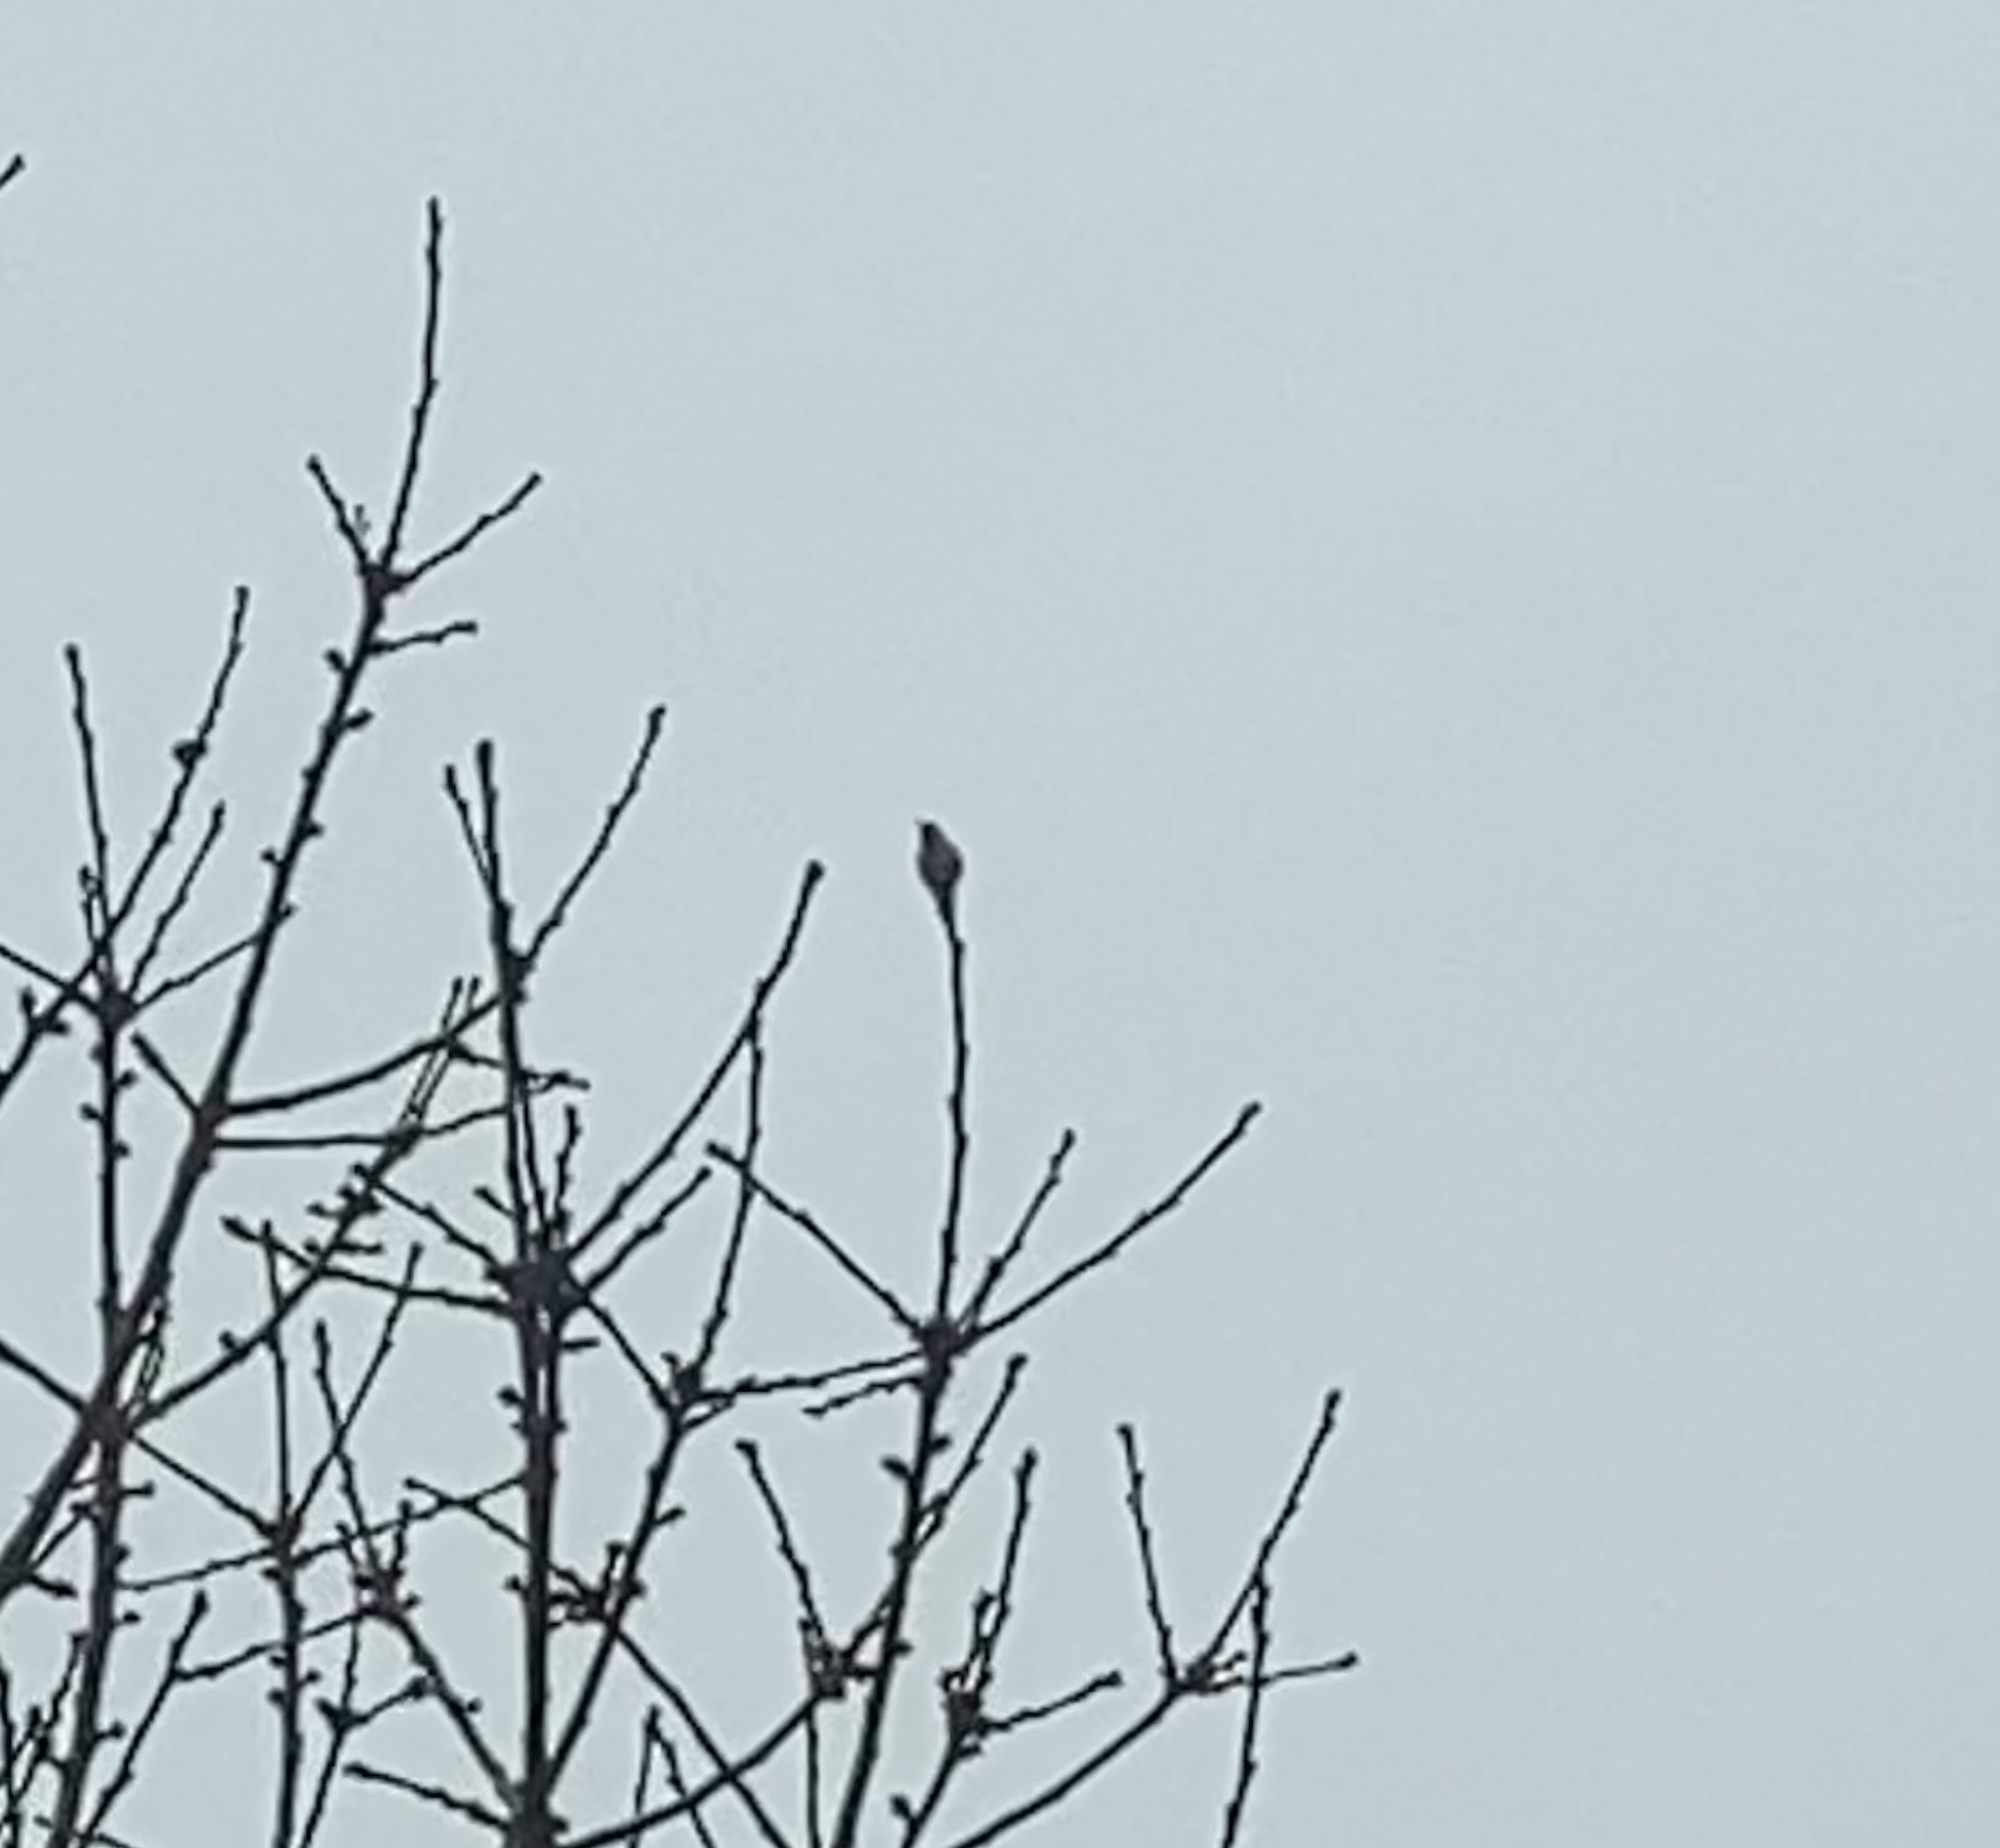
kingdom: Animalia
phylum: Chordata
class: Aves
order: Apodiformes
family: Trochilidae
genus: Calypte
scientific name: Calypte anna
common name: Anna's hummingbird
